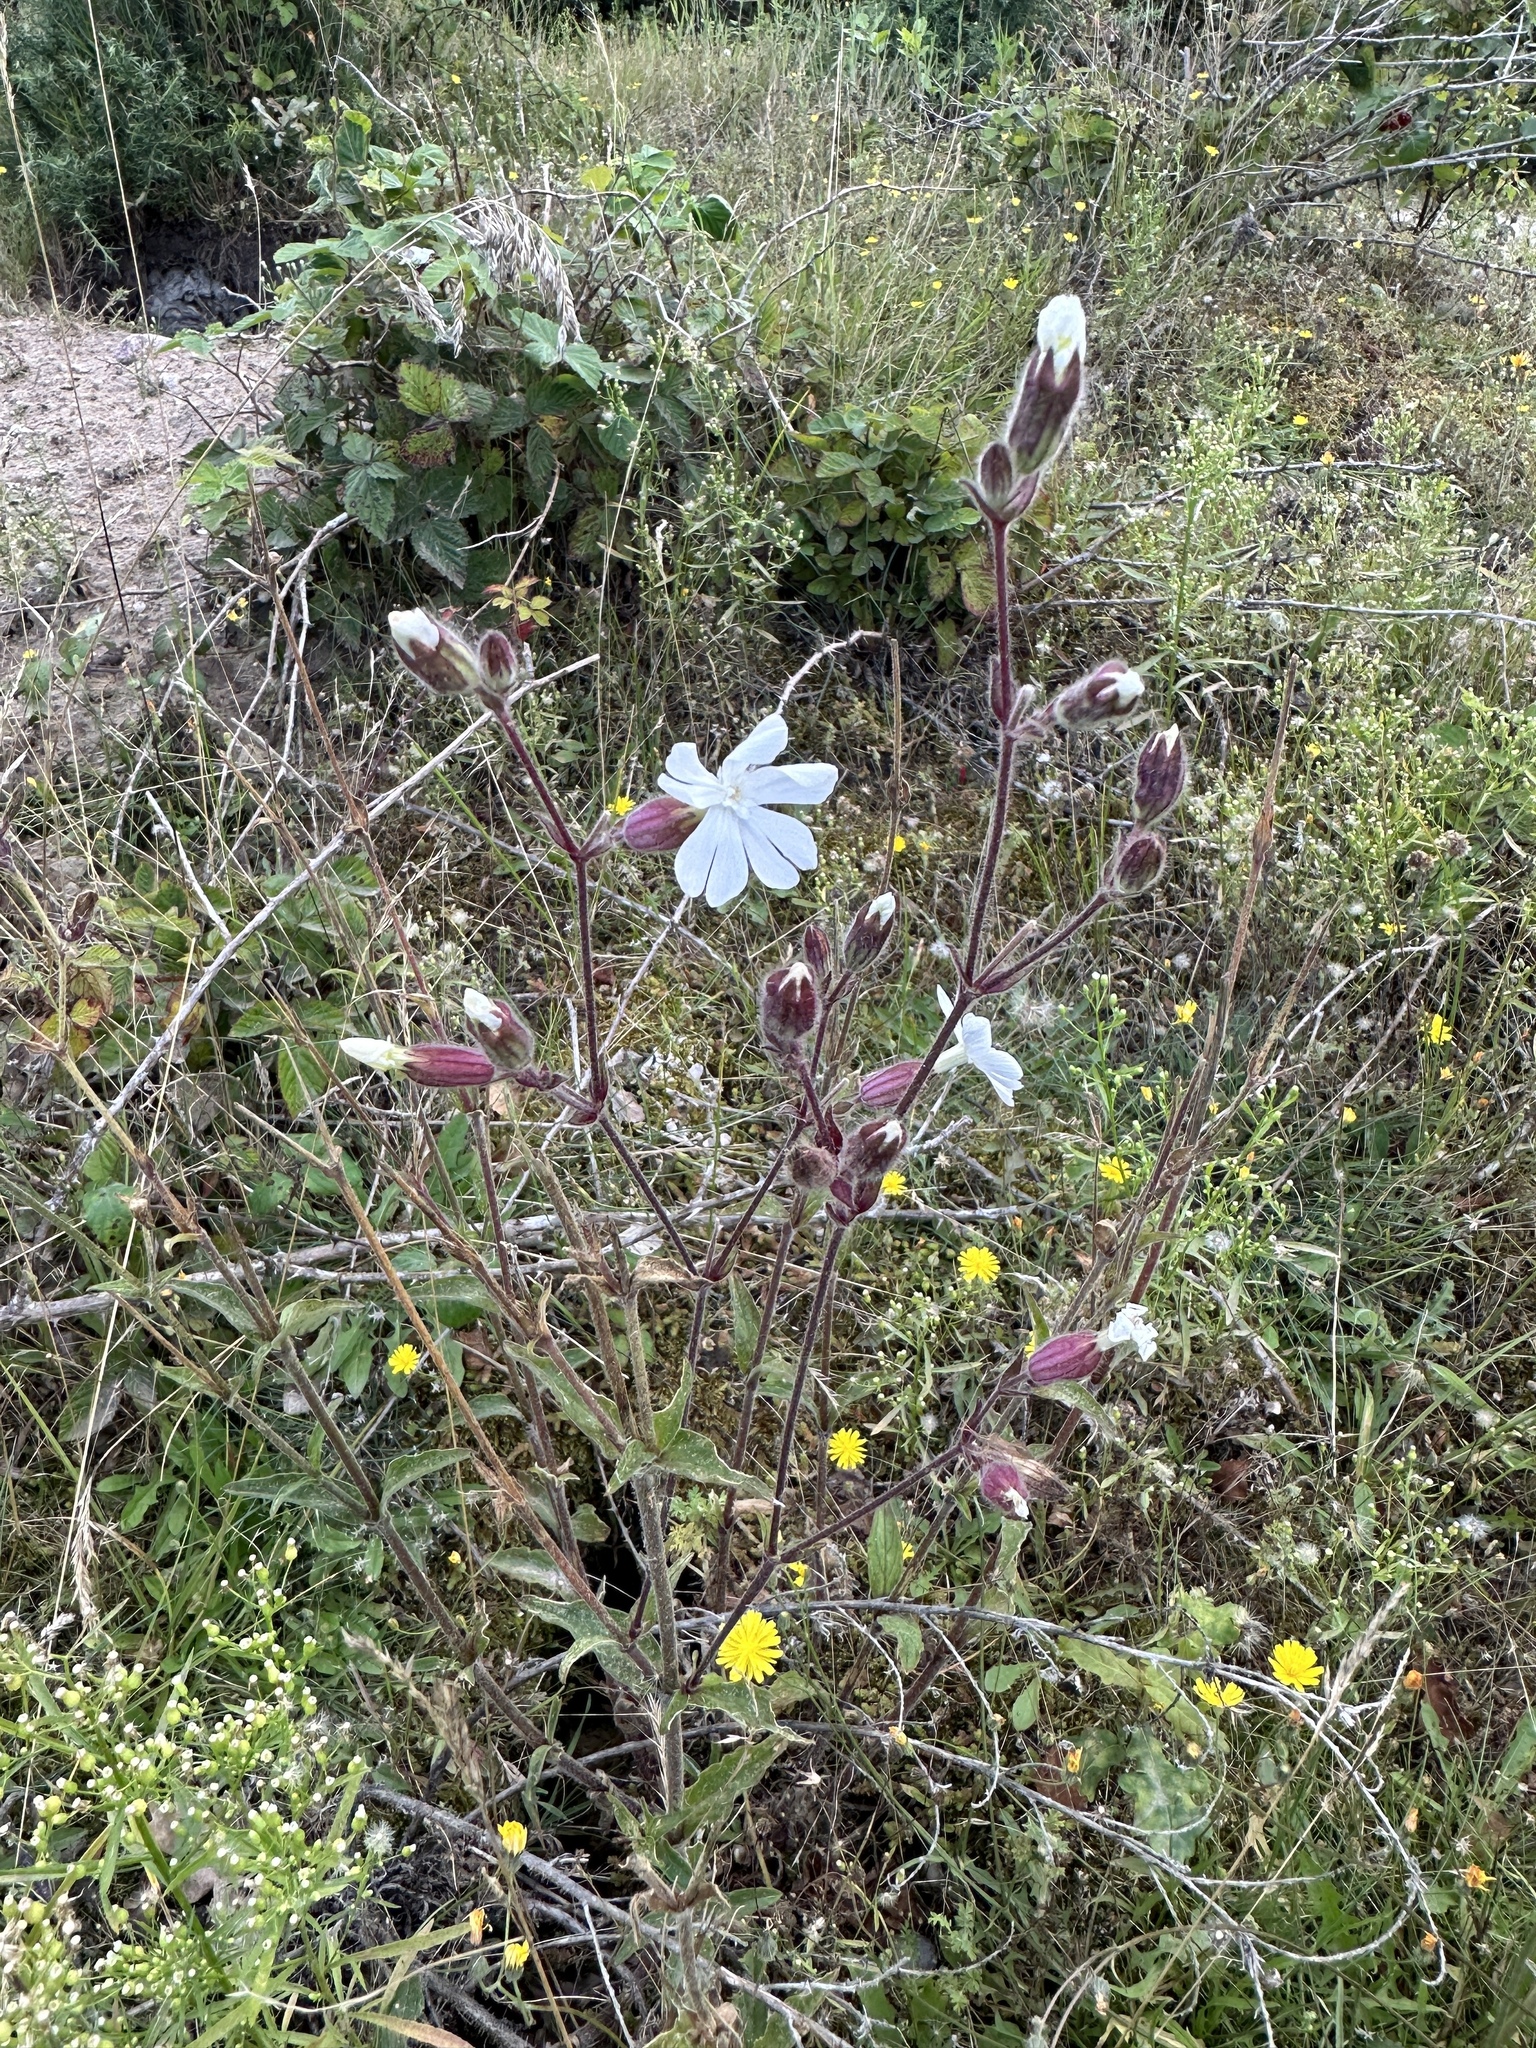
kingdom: Plantae
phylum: Tracheophyta
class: Magnoliopsida
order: Caryophyllales
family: Caryophyllaceae
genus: Silene
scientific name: Silene latifolia
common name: White campion
